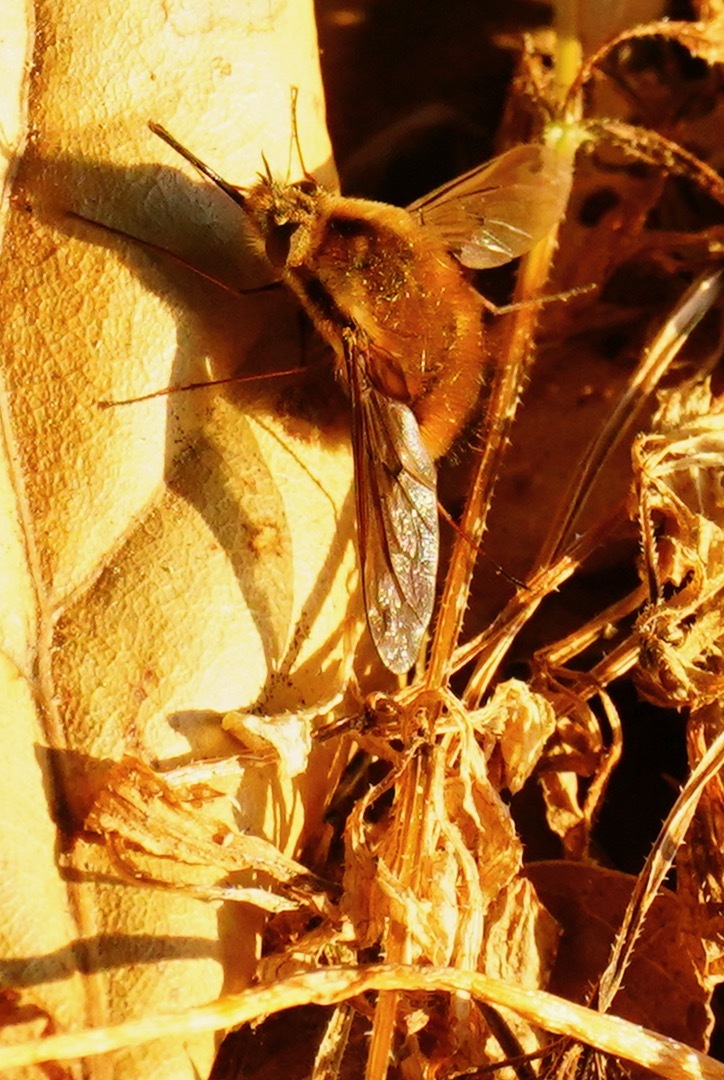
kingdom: Animalia
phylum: Arthropoda
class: Insecta
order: Diptera
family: Bombyliidae
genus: Bombylius
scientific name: Bombylius major
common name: Bee fly
